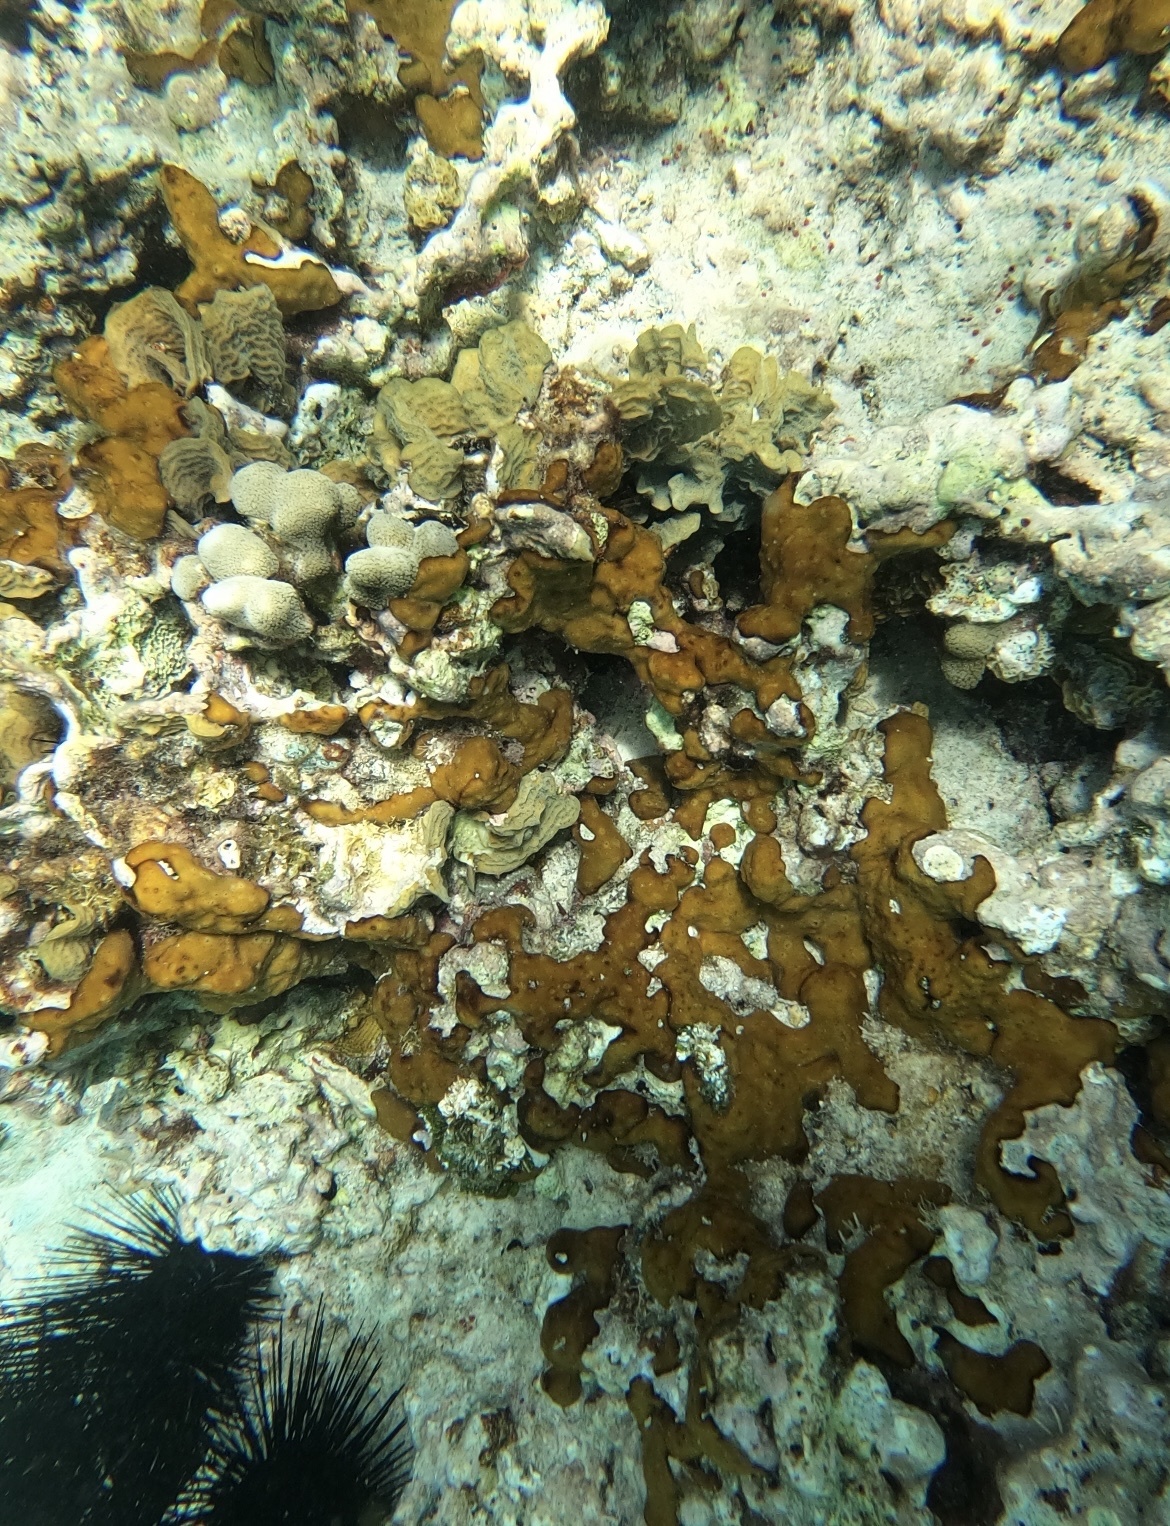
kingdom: Animalia
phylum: Porifera
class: Demospongiae
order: Chondrillida
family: Chondrillidae
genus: Chondrilla
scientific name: Chondrilla caribensis
